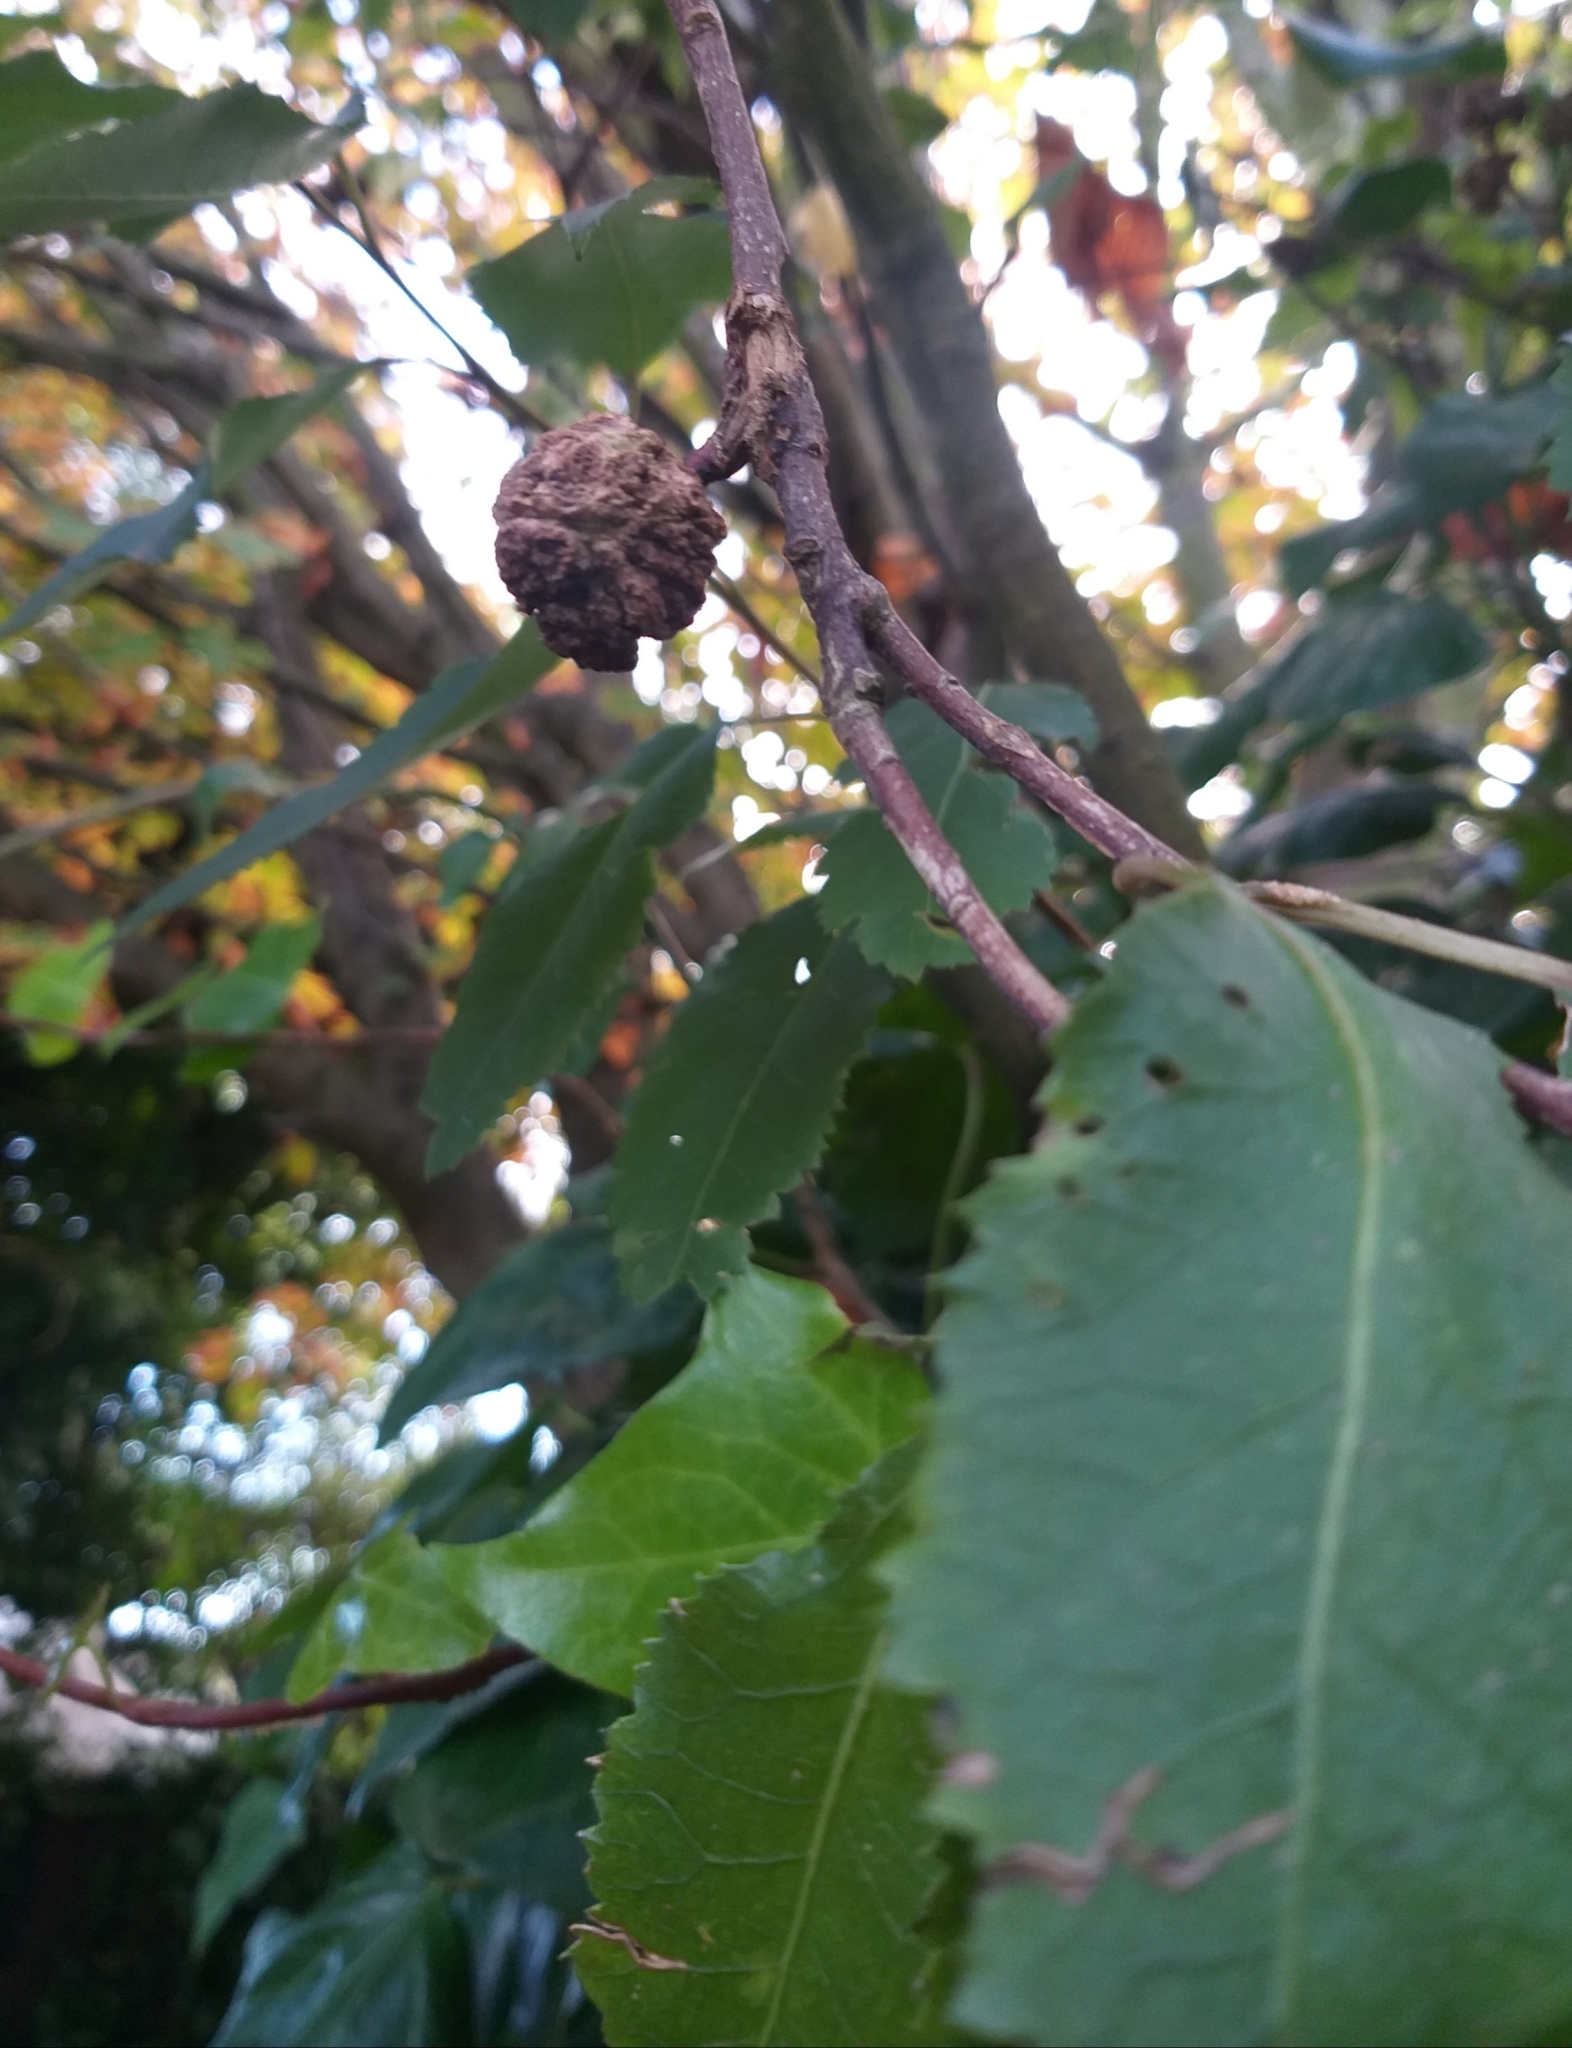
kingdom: Animalia
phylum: Arthropoda
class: Arachnida
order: Trombidiformes
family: Eriophyidae
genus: Eriophyes
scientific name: Eriophyes hoheriae
